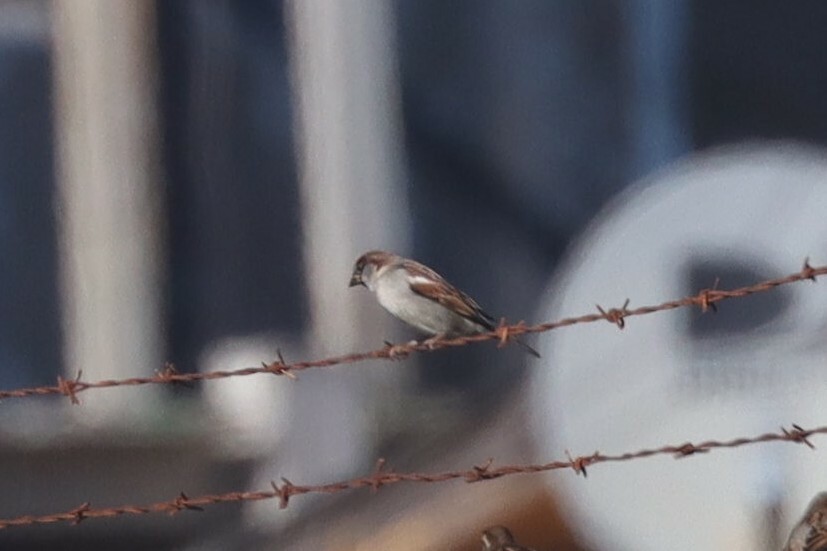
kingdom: Animalia
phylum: Chordata
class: Aves
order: Passeriformes
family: Passeridae
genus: Passer
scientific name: Passer domesticus
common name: House sparrow
